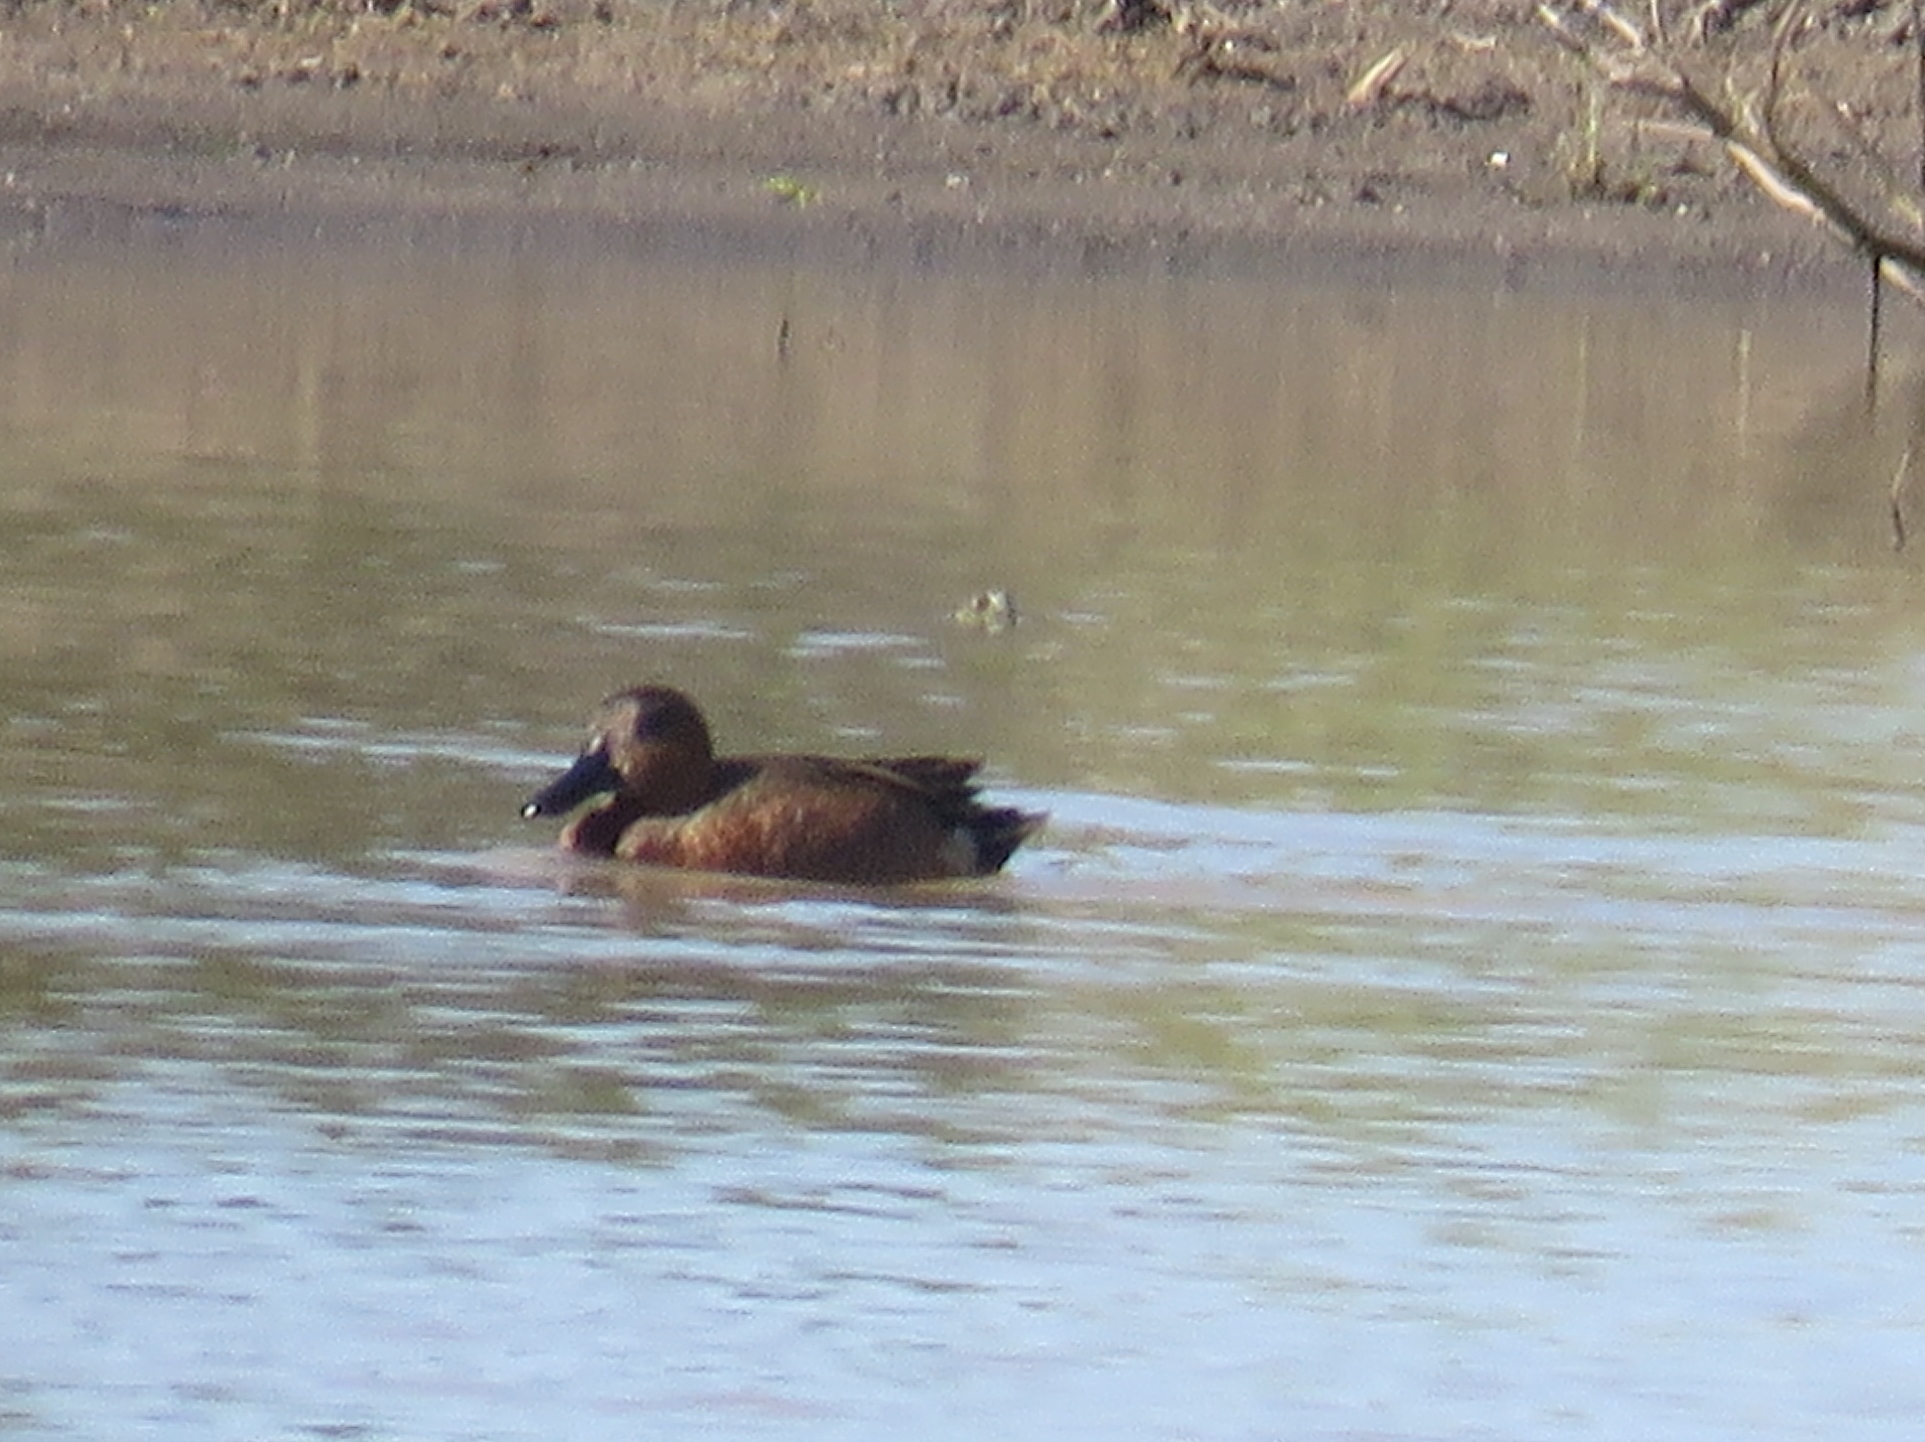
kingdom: Animalia
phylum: Chordata
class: Aves
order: Anseriformes
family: Anatidae
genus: Spatula
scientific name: Spatula cyanoptera
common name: Cinnamon teal
